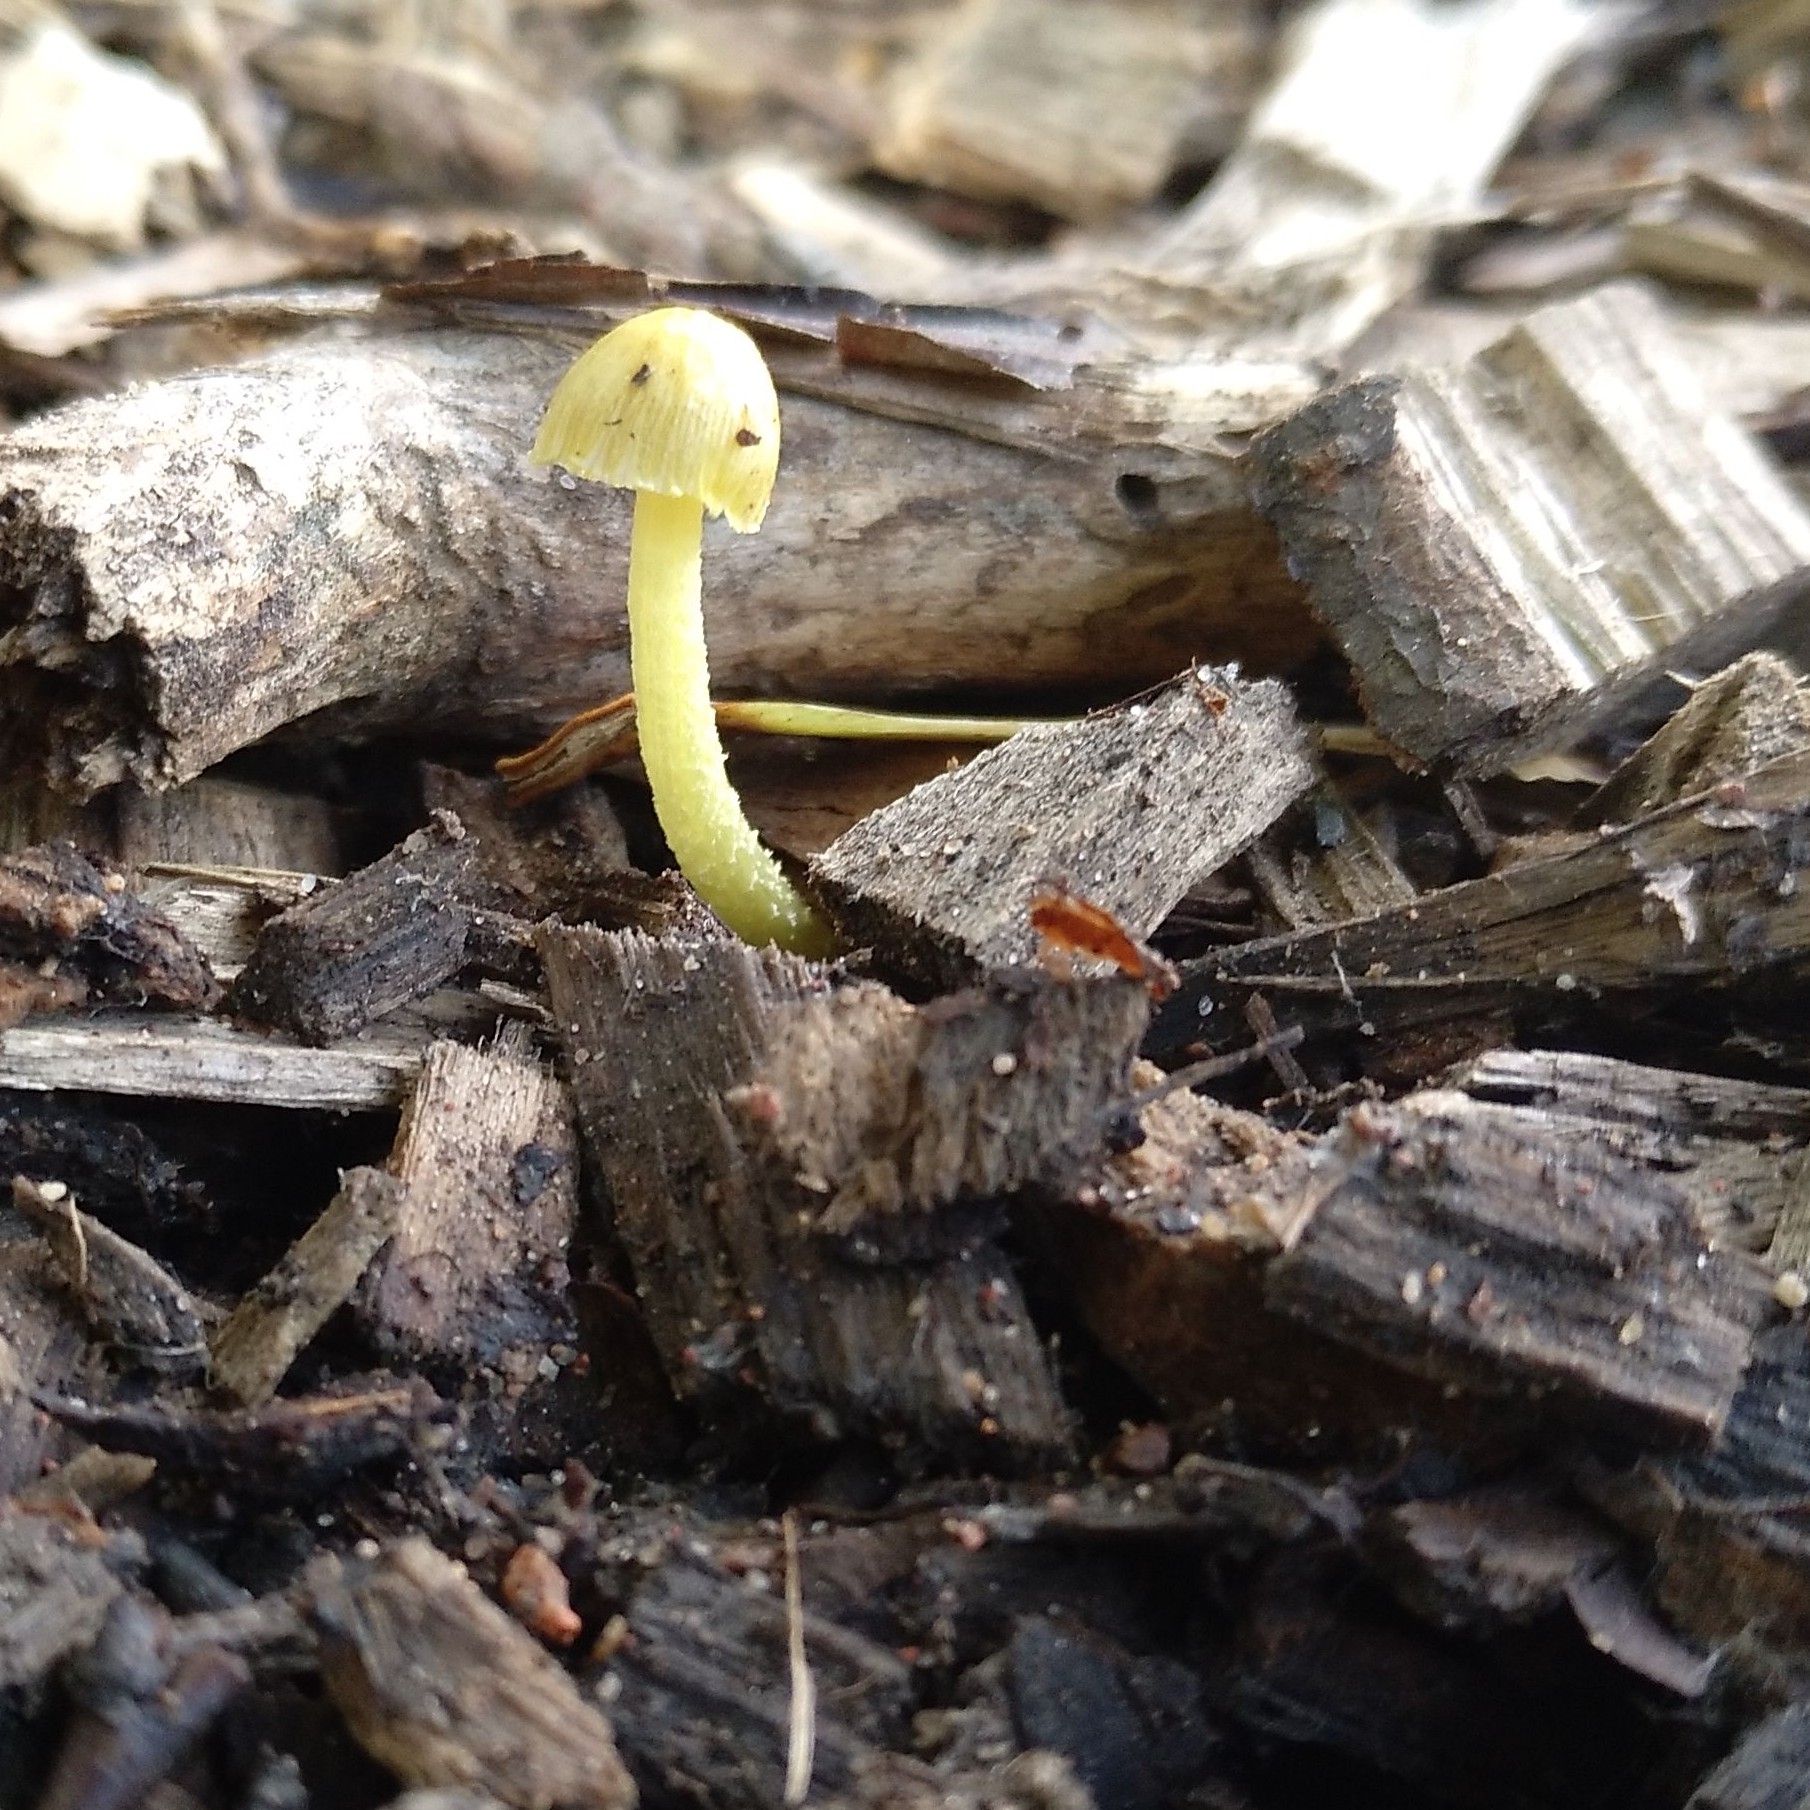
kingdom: Fungi
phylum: Basidiomycota
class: Agaricomycetes
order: Agaricales
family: Bolbitiaceae
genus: Bolbitius
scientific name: Bolbitius titubans
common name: Yellow fieldcap
